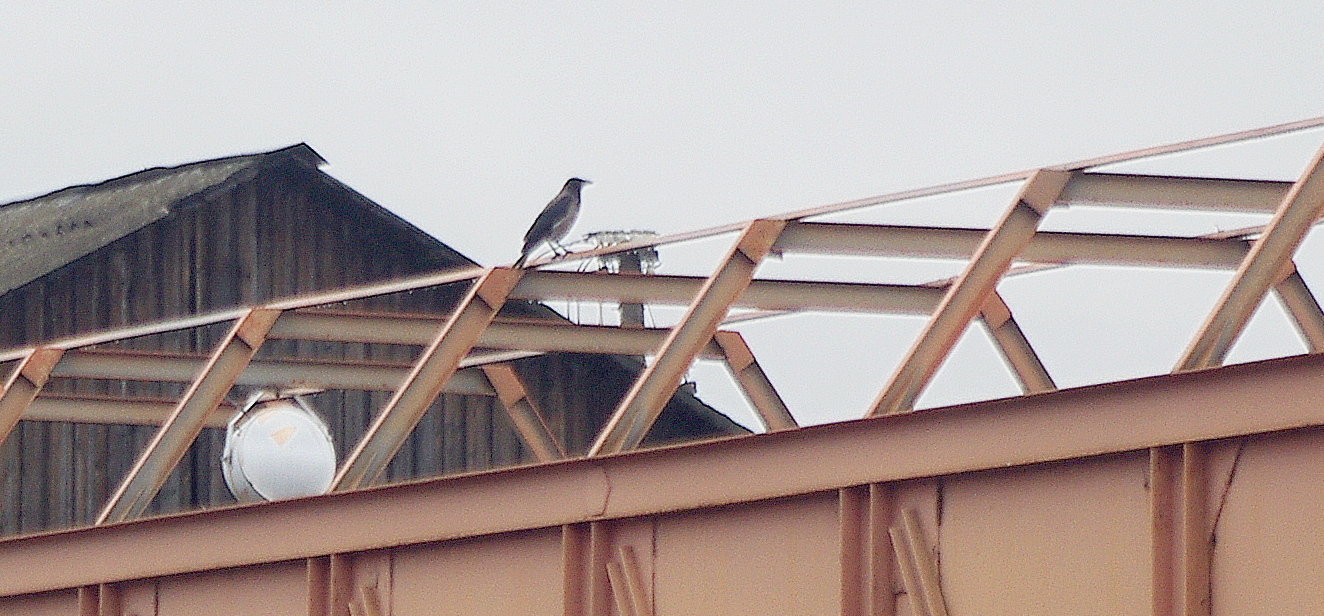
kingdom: Animalia
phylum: Chordata
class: Aves
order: Passeriformes
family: Corvidae
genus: Corvus
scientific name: Corvus cornix
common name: Hooded crow
